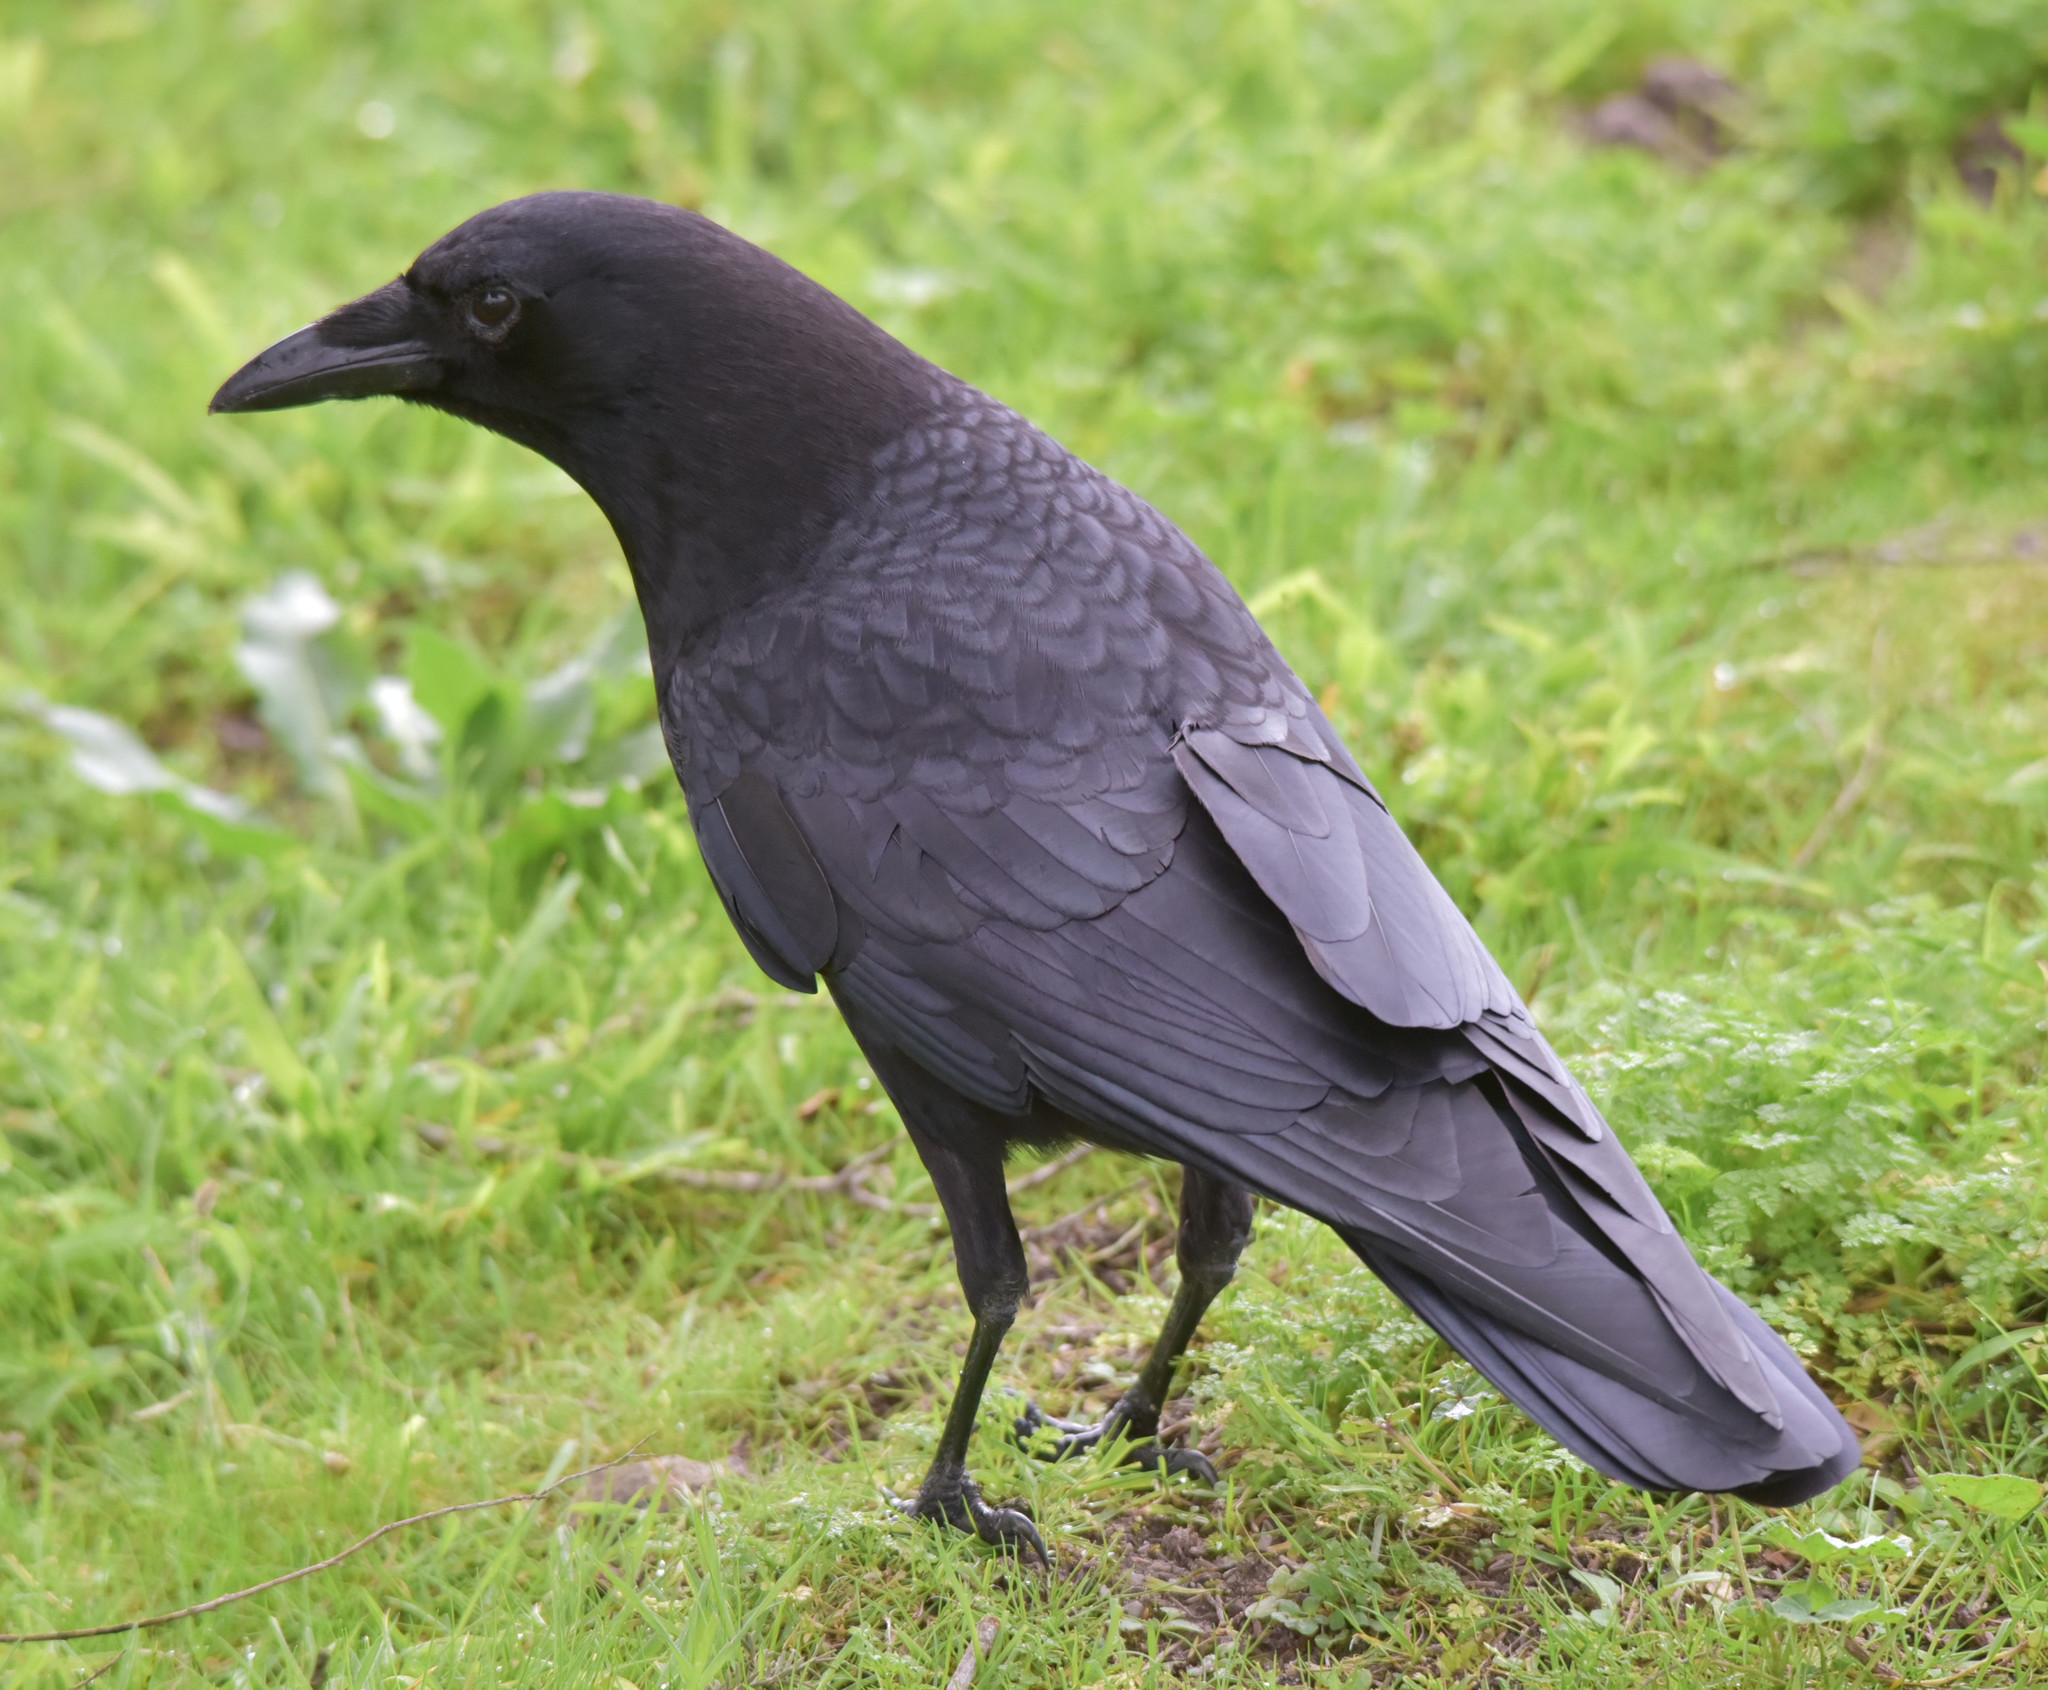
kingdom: Animalia
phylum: Chordata
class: Aves
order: Passeriformes
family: Corvidae
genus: Corvus
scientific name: Corvus brachyrhynchos
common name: American crow
